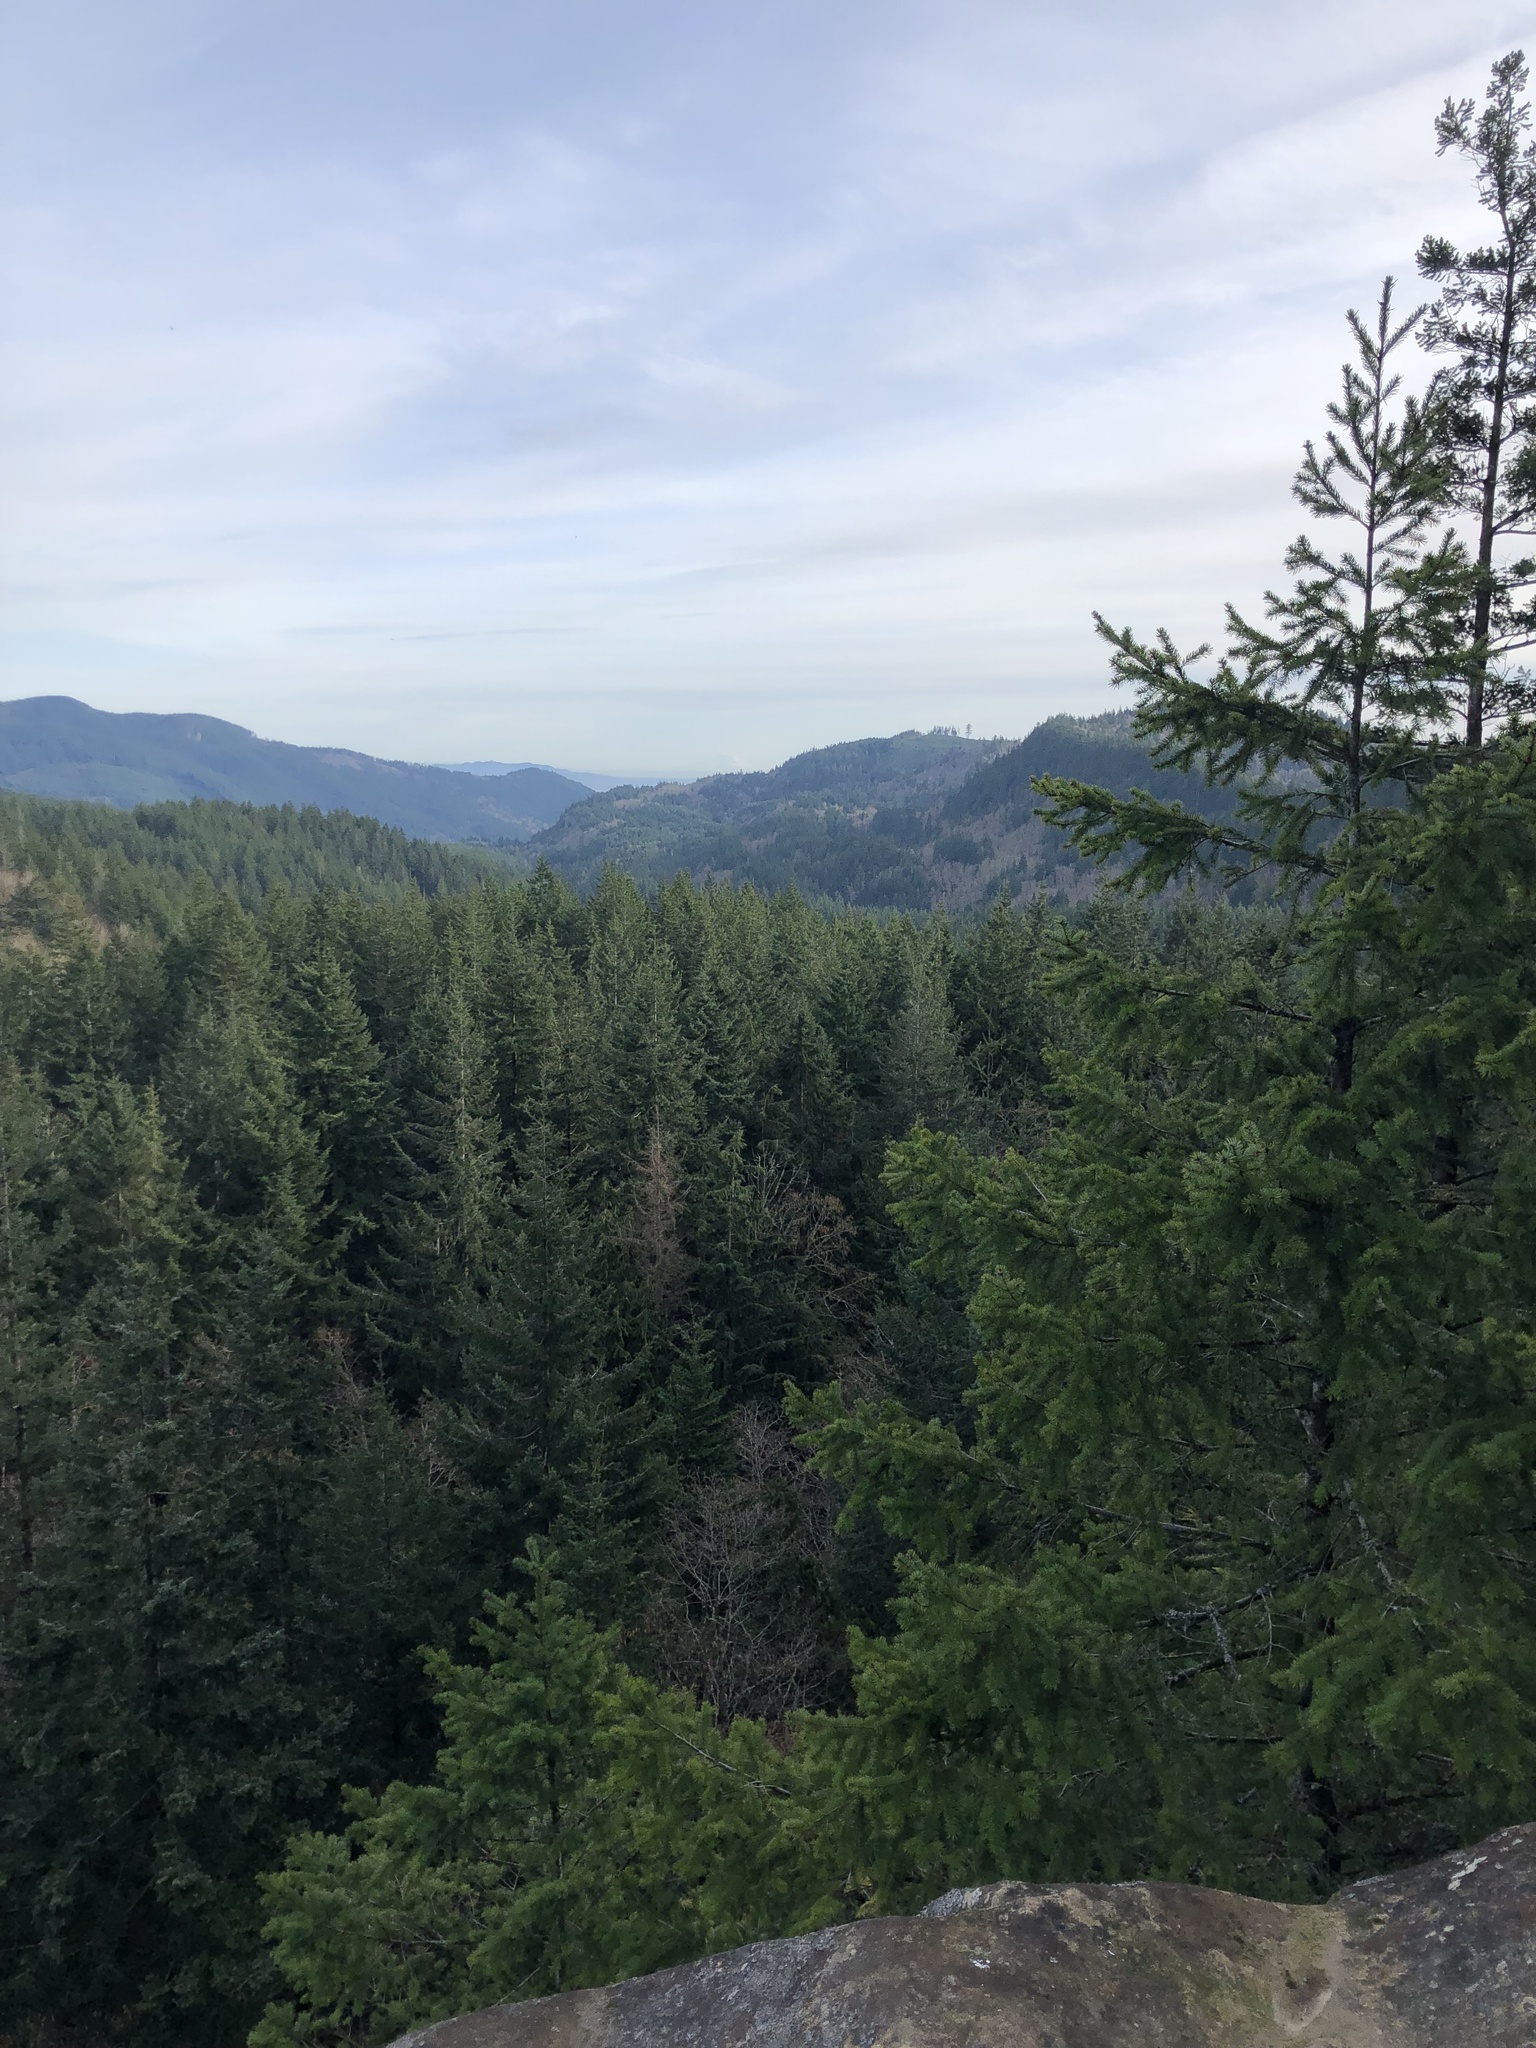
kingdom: Plantae
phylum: Tracheophyta
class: Pinopsida
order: Pinales
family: Pinaceae
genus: Pseudotsuga
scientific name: Pseudotsuga menziesii
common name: Douglas fir
